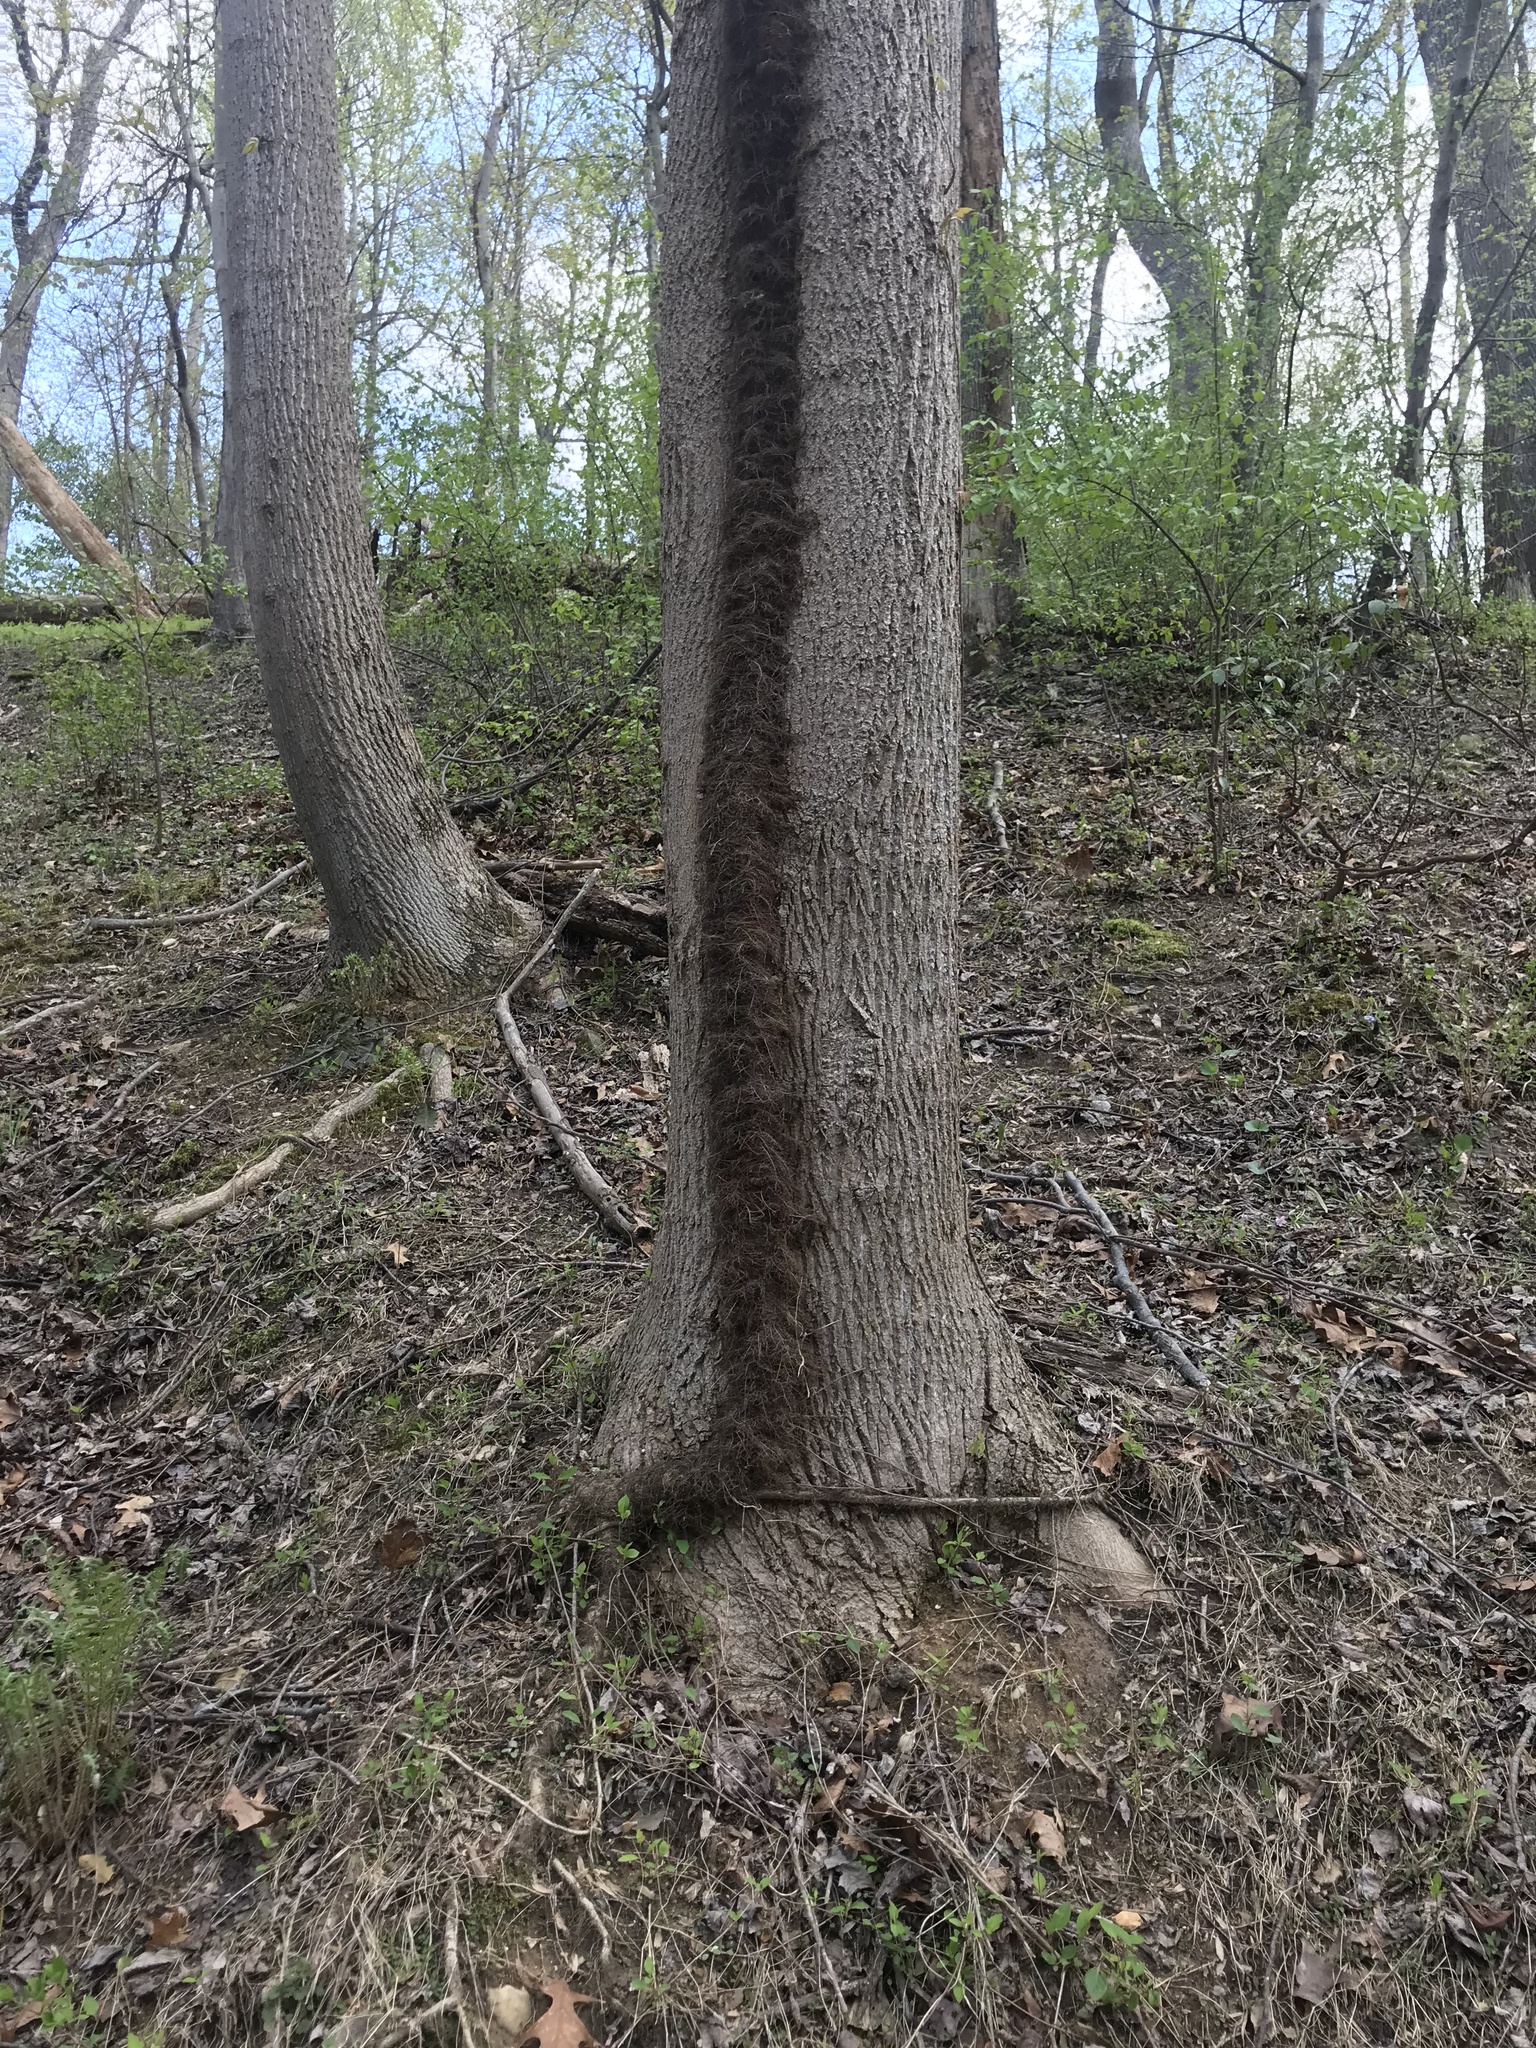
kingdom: Plantae
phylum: Tracheophyta
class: Magnoliopsida
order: Magnoliales
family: Magnoliaceae
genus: Liriodendron
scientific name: Liriodendron tulipifera
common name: Tulip tree
